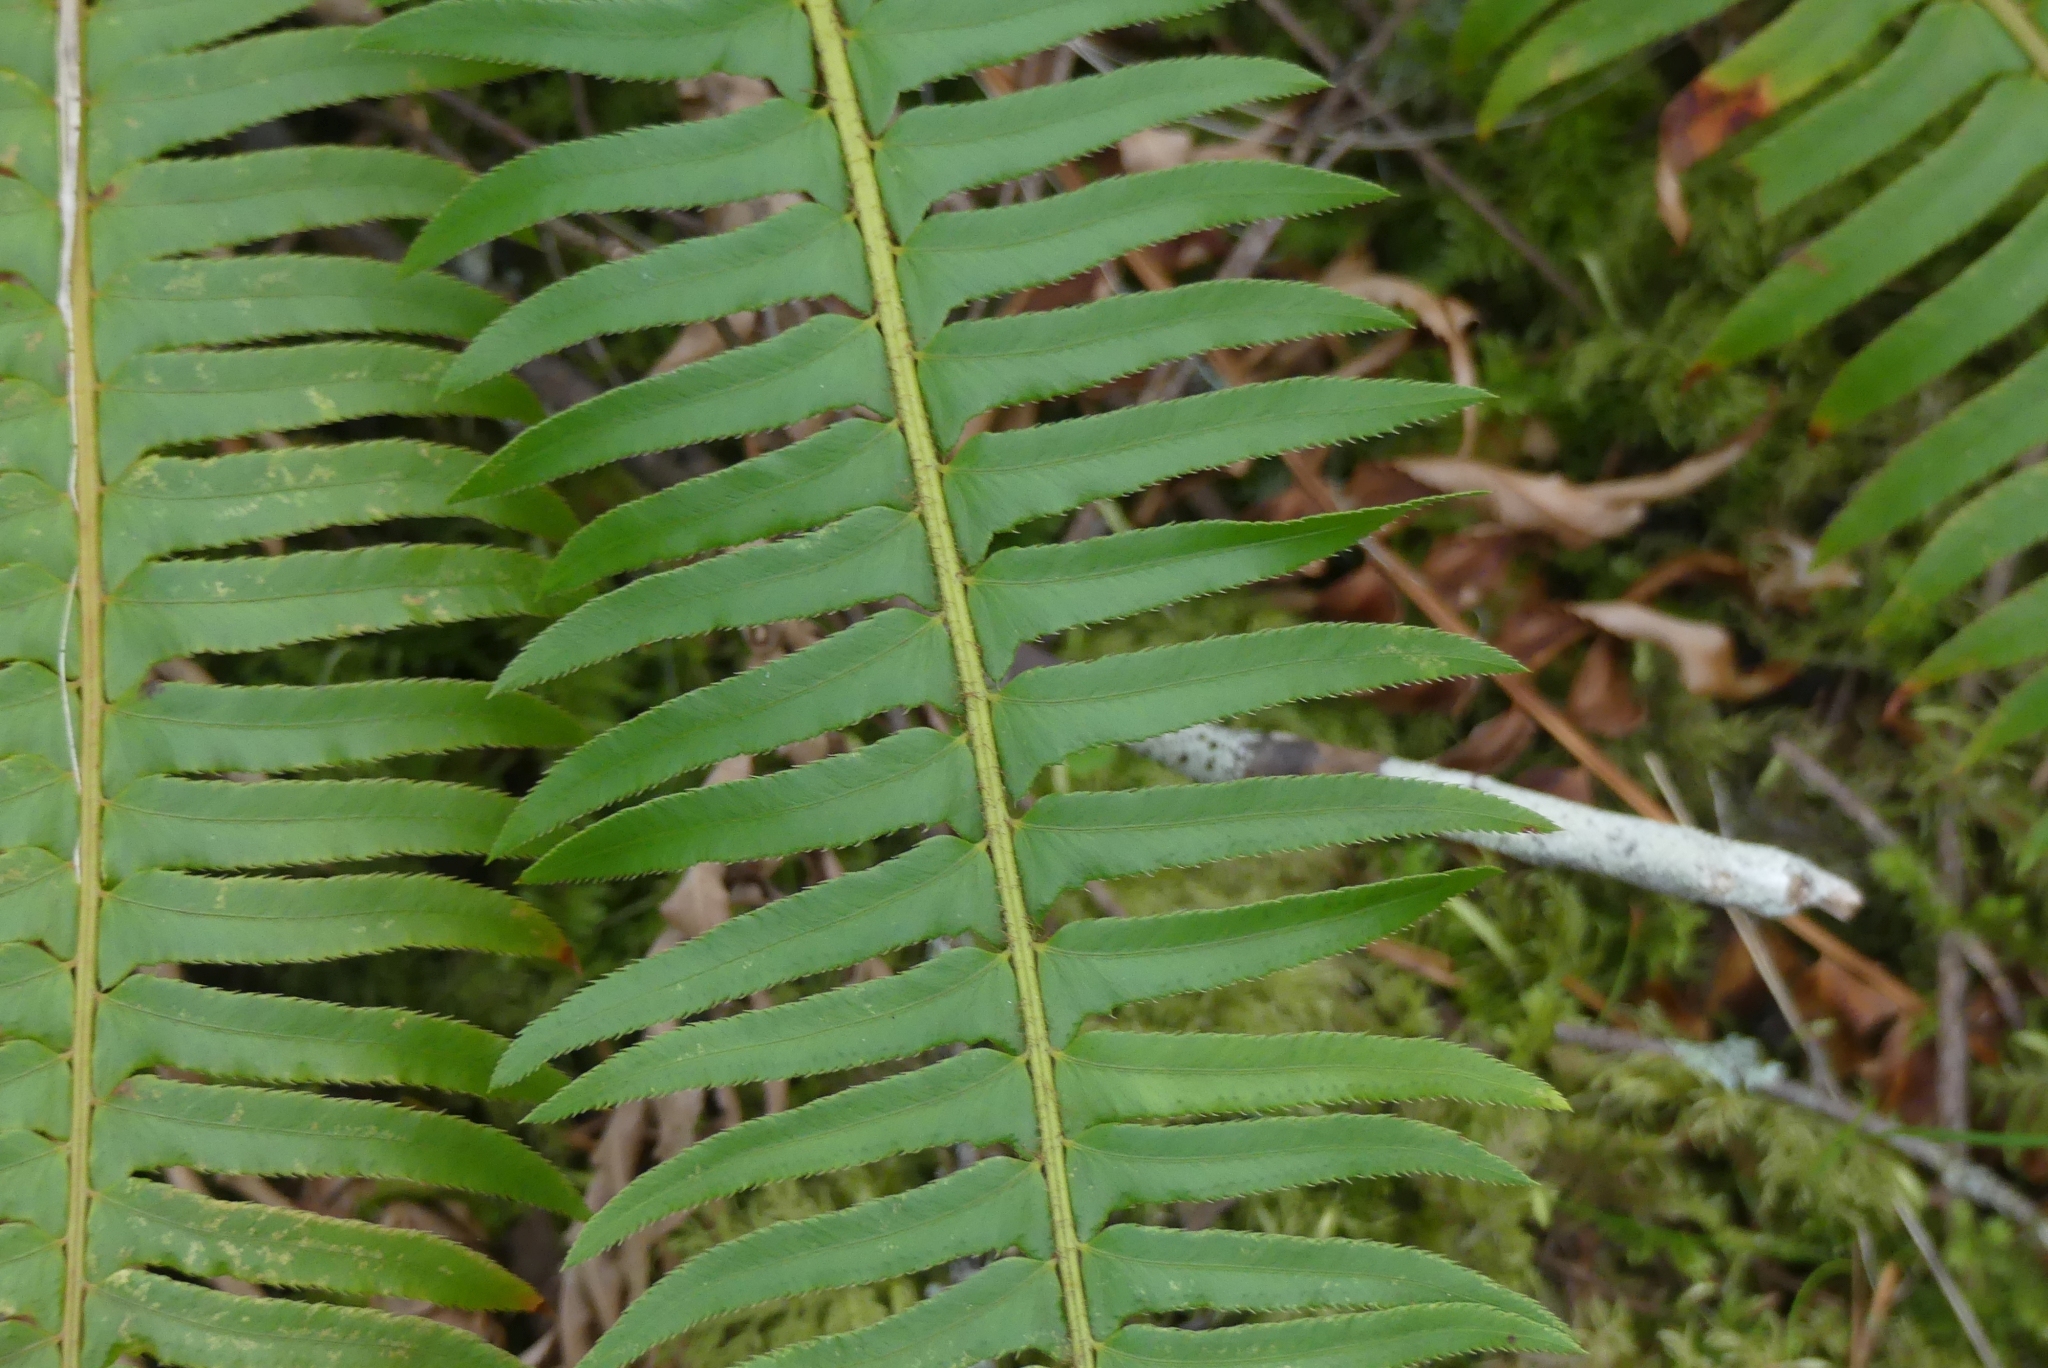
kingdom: Plantae
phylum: Tracheophyta
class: Polypodiopsida
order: Polypodiales
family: Dryopteridaceae
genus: Polystichum
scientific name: Polystichum munitum
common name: Western sword-fern
